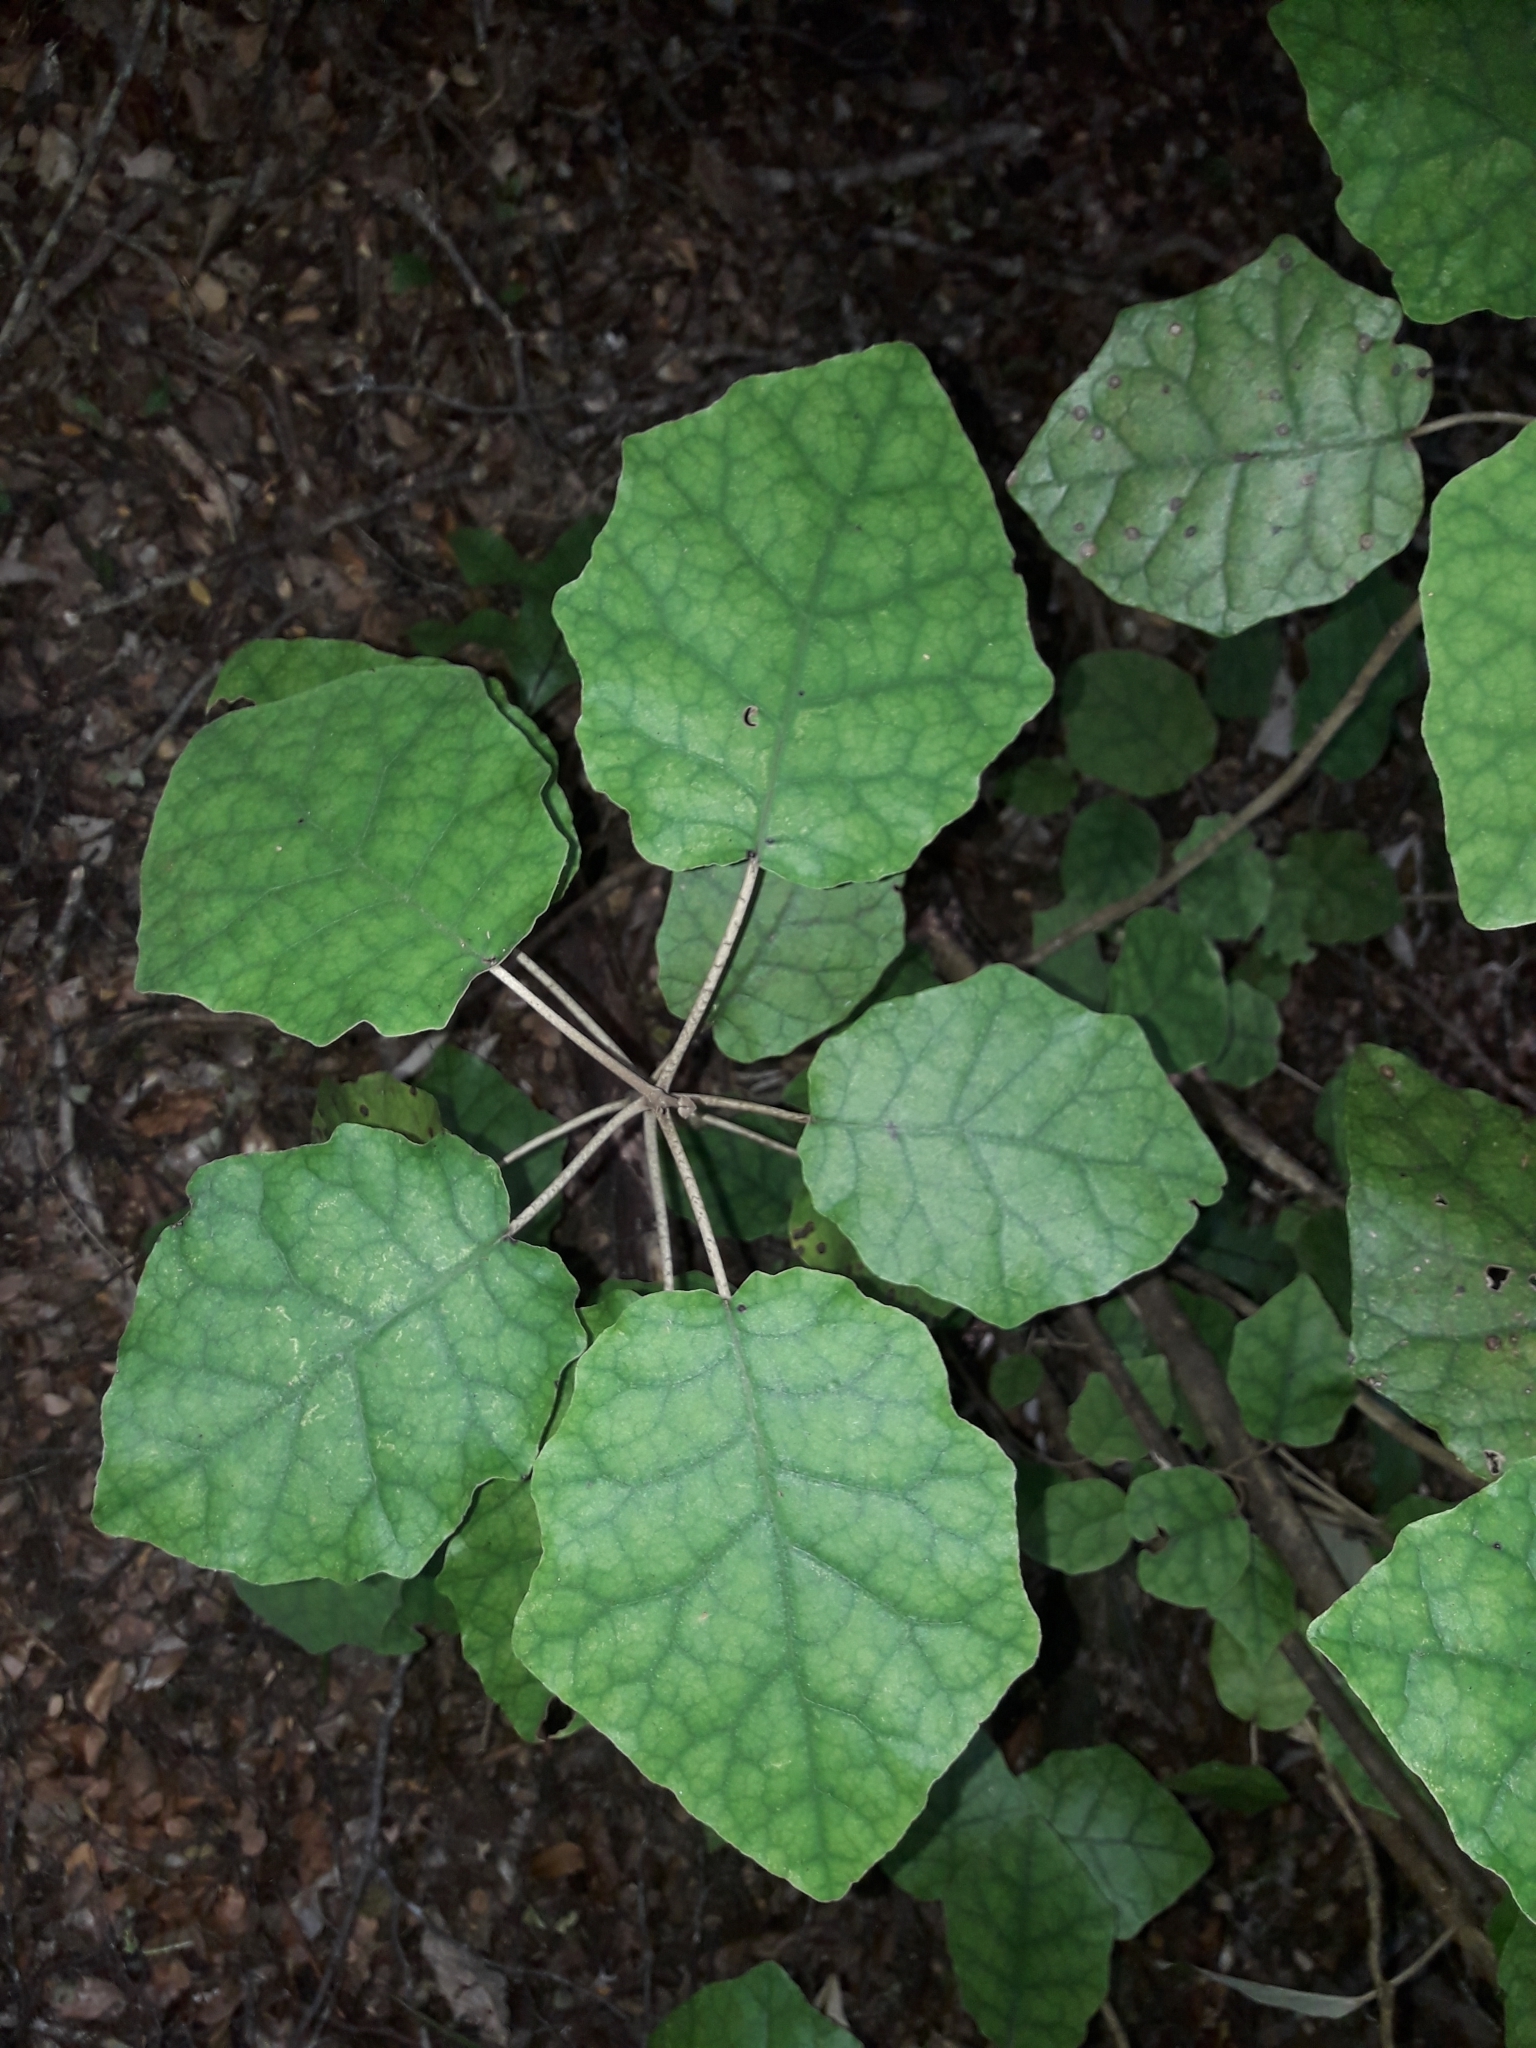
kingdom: Plantae
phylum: Tracheophyta
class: Magnoliopsida
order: Asterales
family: Asteraceae
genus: Brachyglottis
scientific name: Brachyglottis repanda
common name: Hedge ragwort
